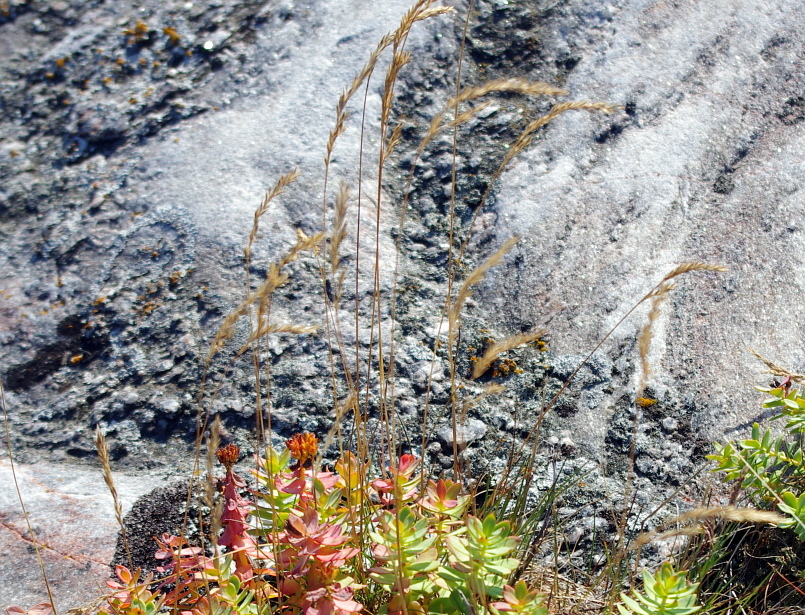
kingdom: Plantae
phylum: Tracheophyta
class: Liliopsida
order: Poales
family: Poaceae
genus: Festuca
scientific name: Festuca ovina
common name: Sheep fescue
